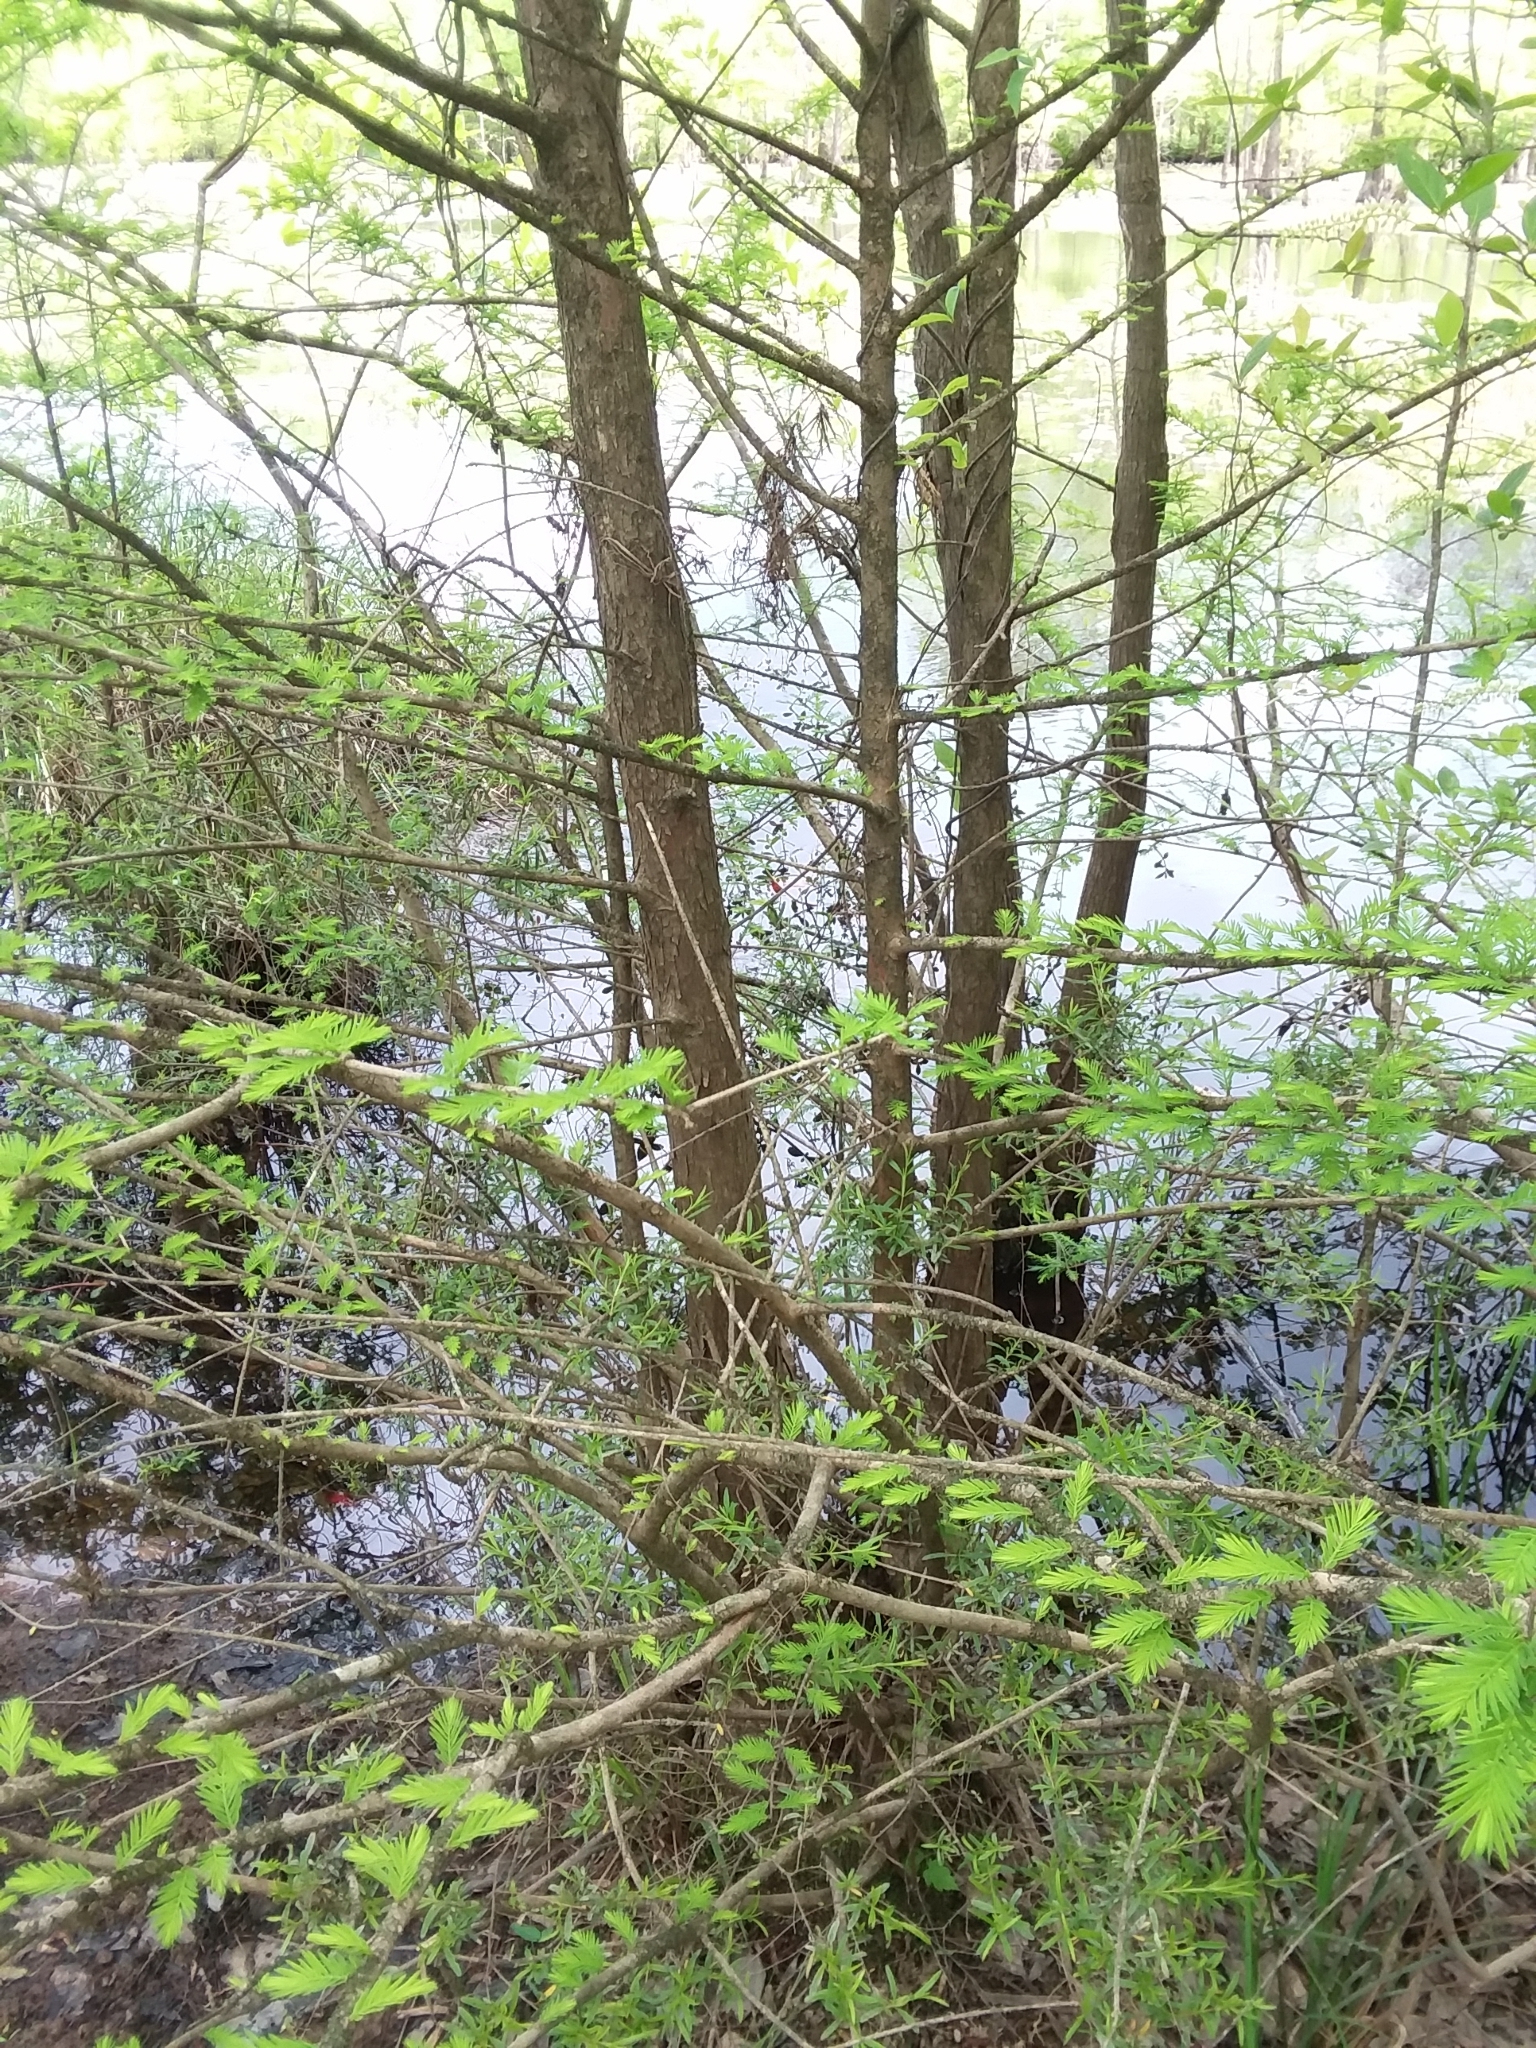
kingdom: Plantae
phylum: Tracheophyta
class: Pinopsida
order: Pinales
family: Cupressaceae
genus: Taxodium
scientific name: Taxodium distichum
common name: Bald cypress
